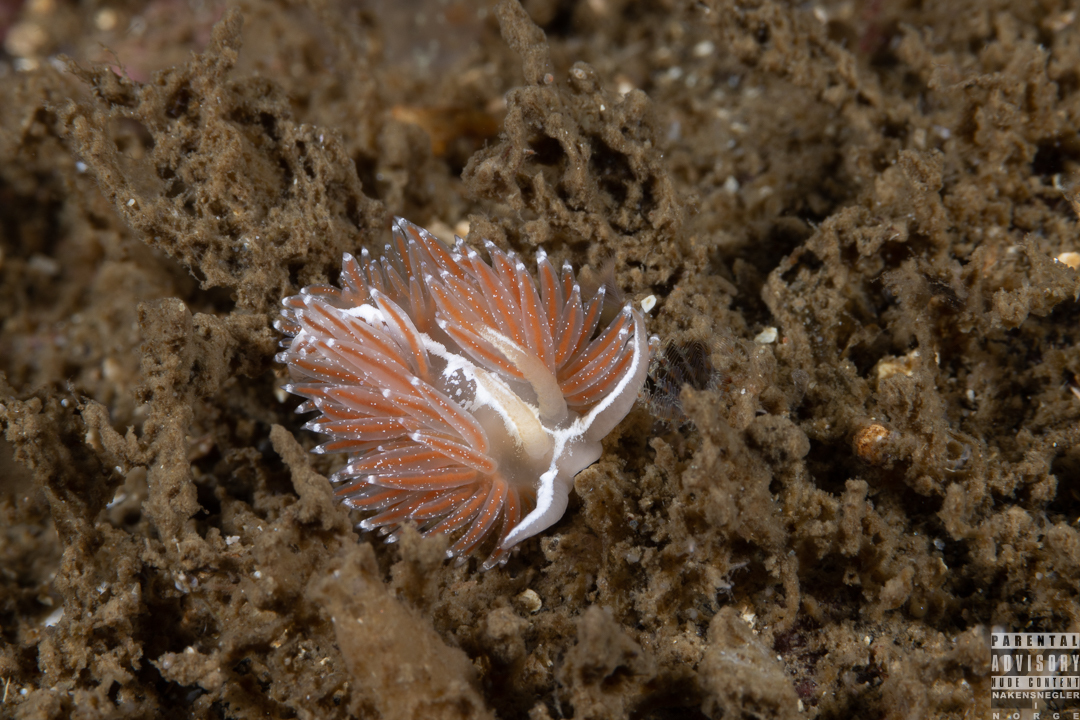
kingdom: Animalia
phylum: Mollusca
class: Gastropoda
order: Nudibranchia
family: Coryphellidae
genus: Coryphella
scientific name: Coryphella monicae
